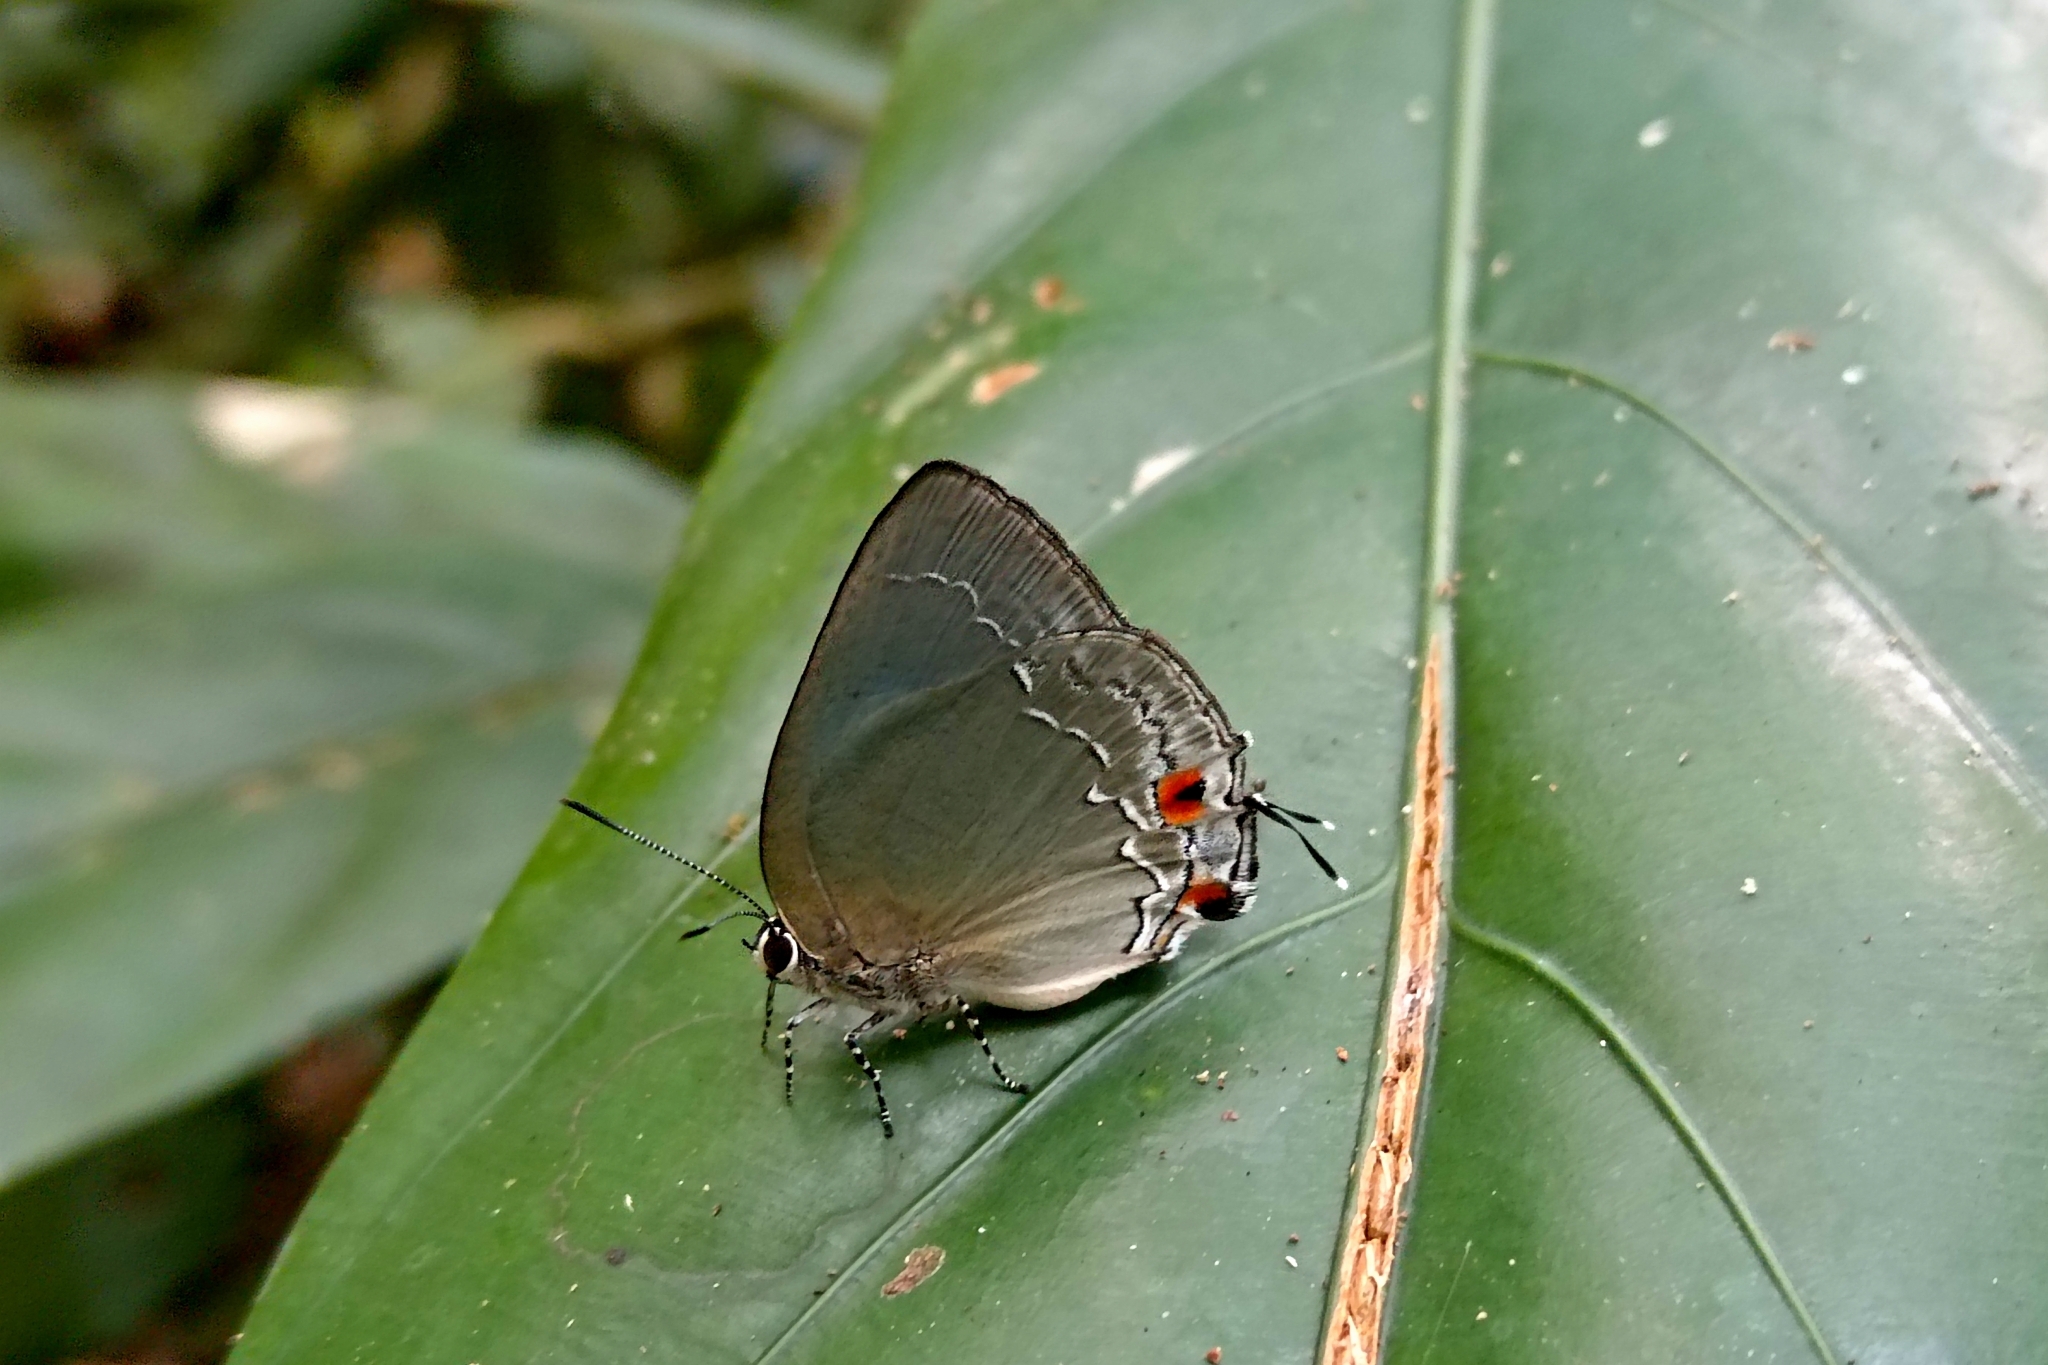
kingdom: Animalia
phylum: Arthropoda
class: Insecta
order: Lepidoptera
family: Lycaenidae
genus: Thecla
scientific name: Thecla carteia
